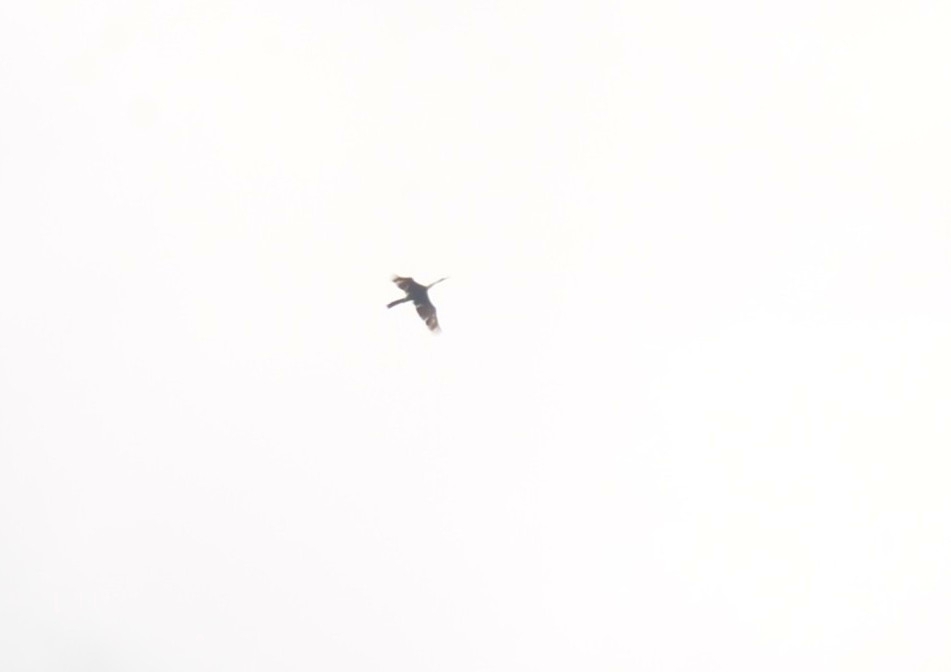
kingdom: Animalia
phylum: Chordata
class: Aves
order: Suliformes
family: Anhingidae
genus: Anhinga
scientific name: Anhinga melanogaster
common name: Oriental darter
